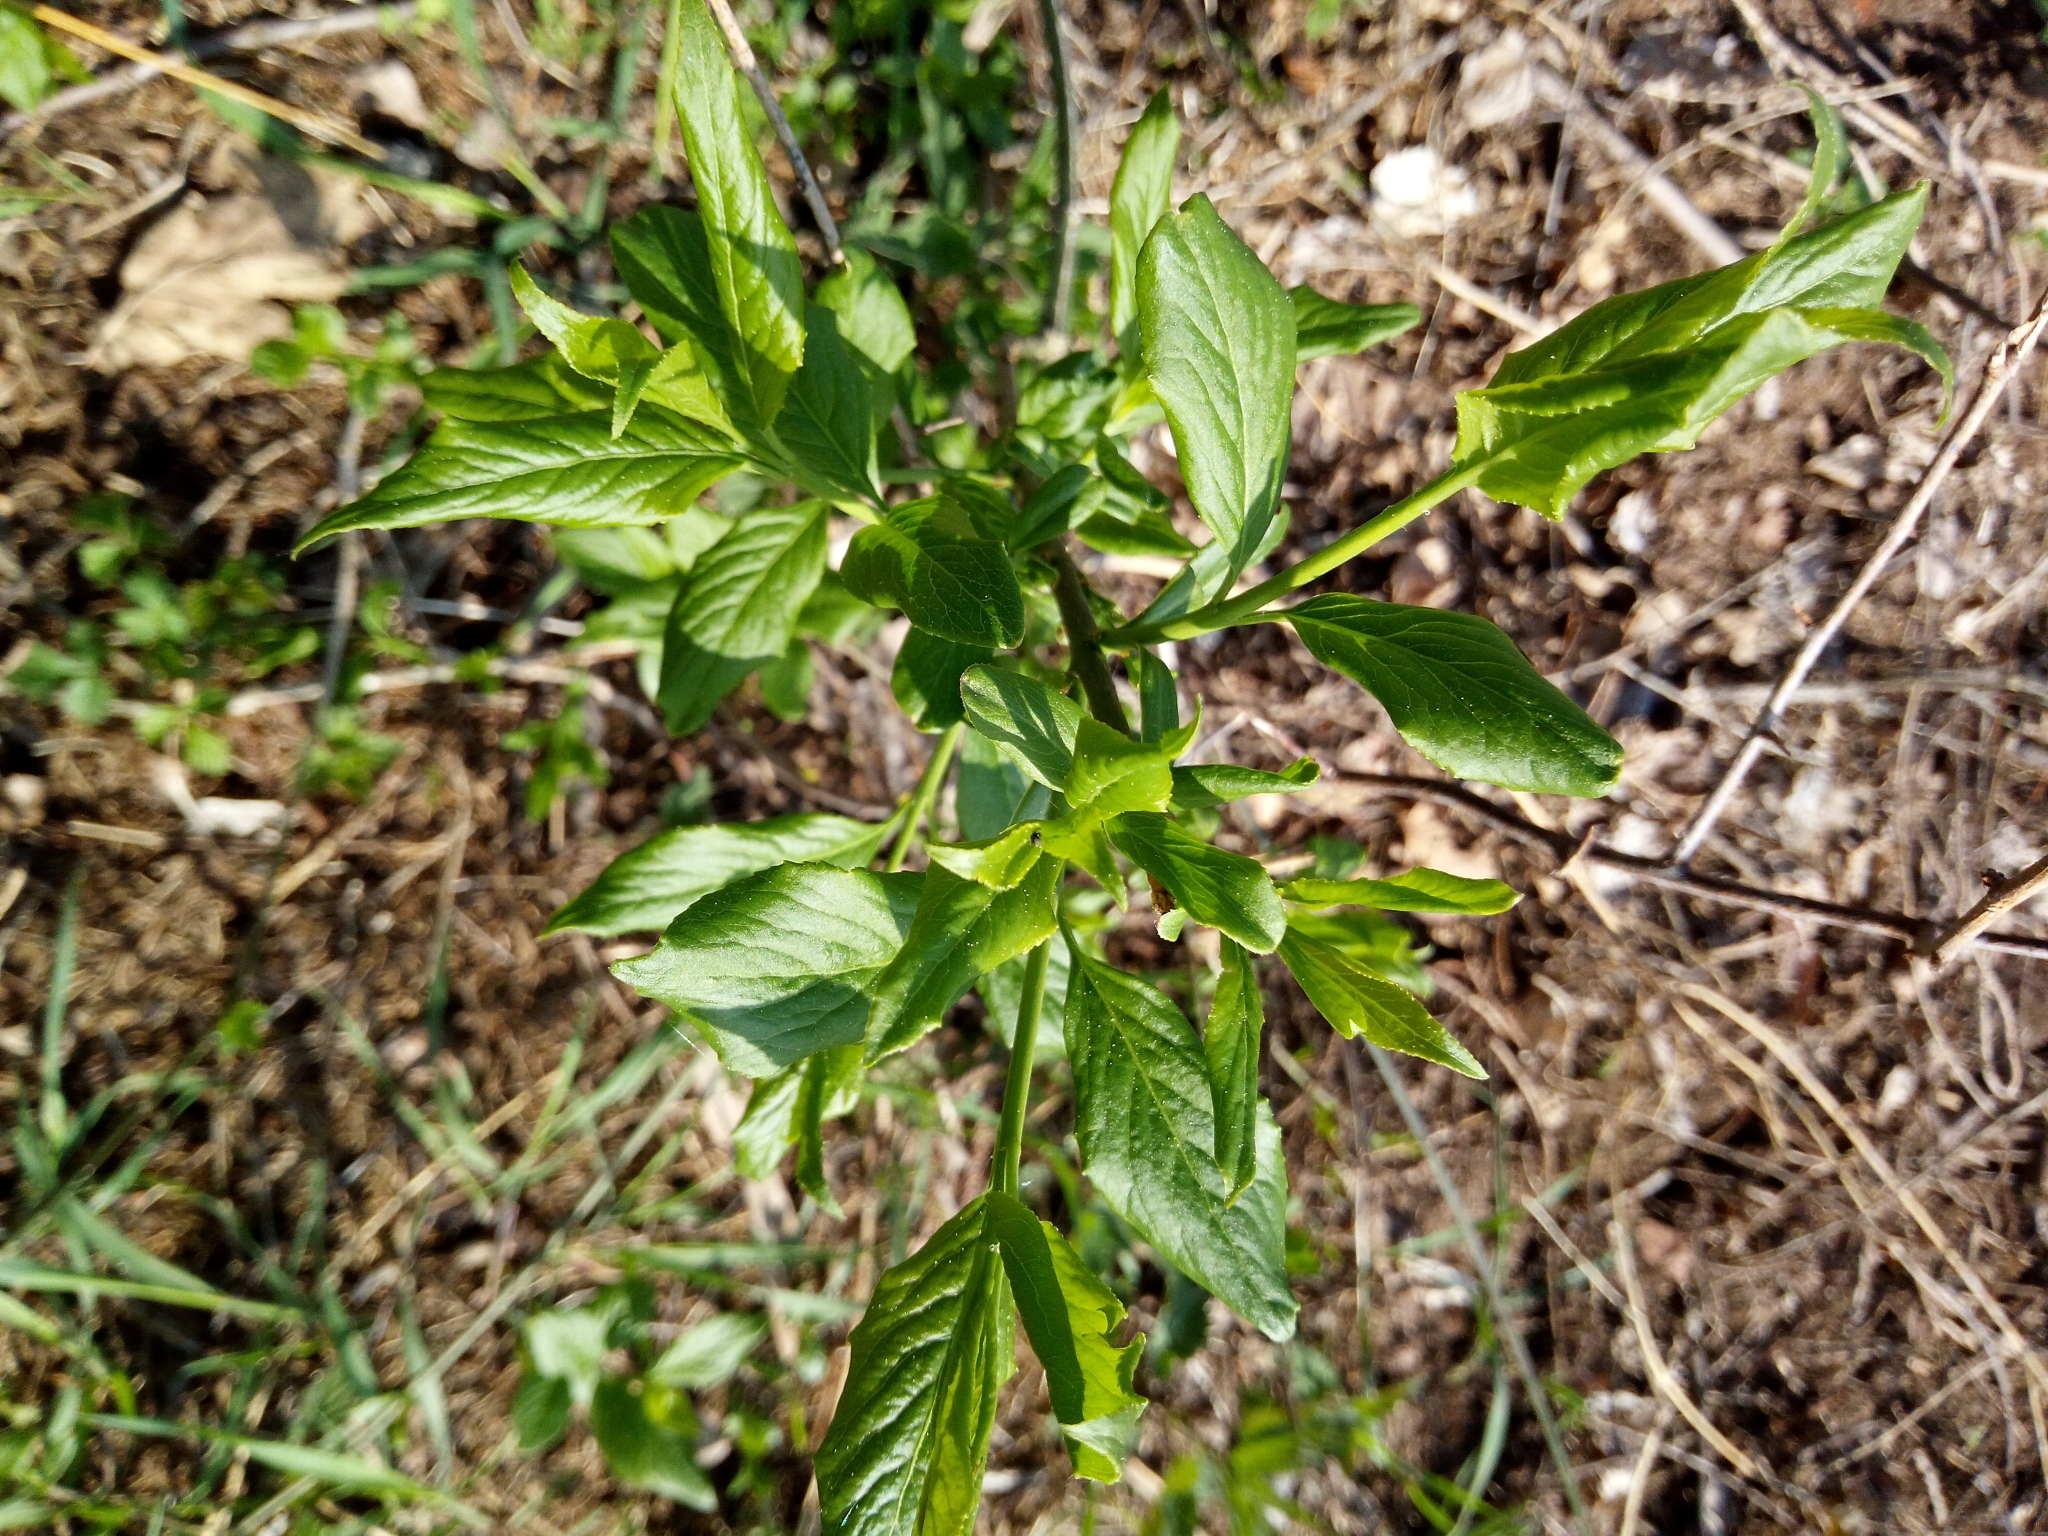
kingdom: Plantae
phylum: Tracheophyta
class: Magnoliopsida
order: Celastrales
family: Celastraceae
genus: Euonymus
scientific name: Euonymus europaeus
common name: Spindle
